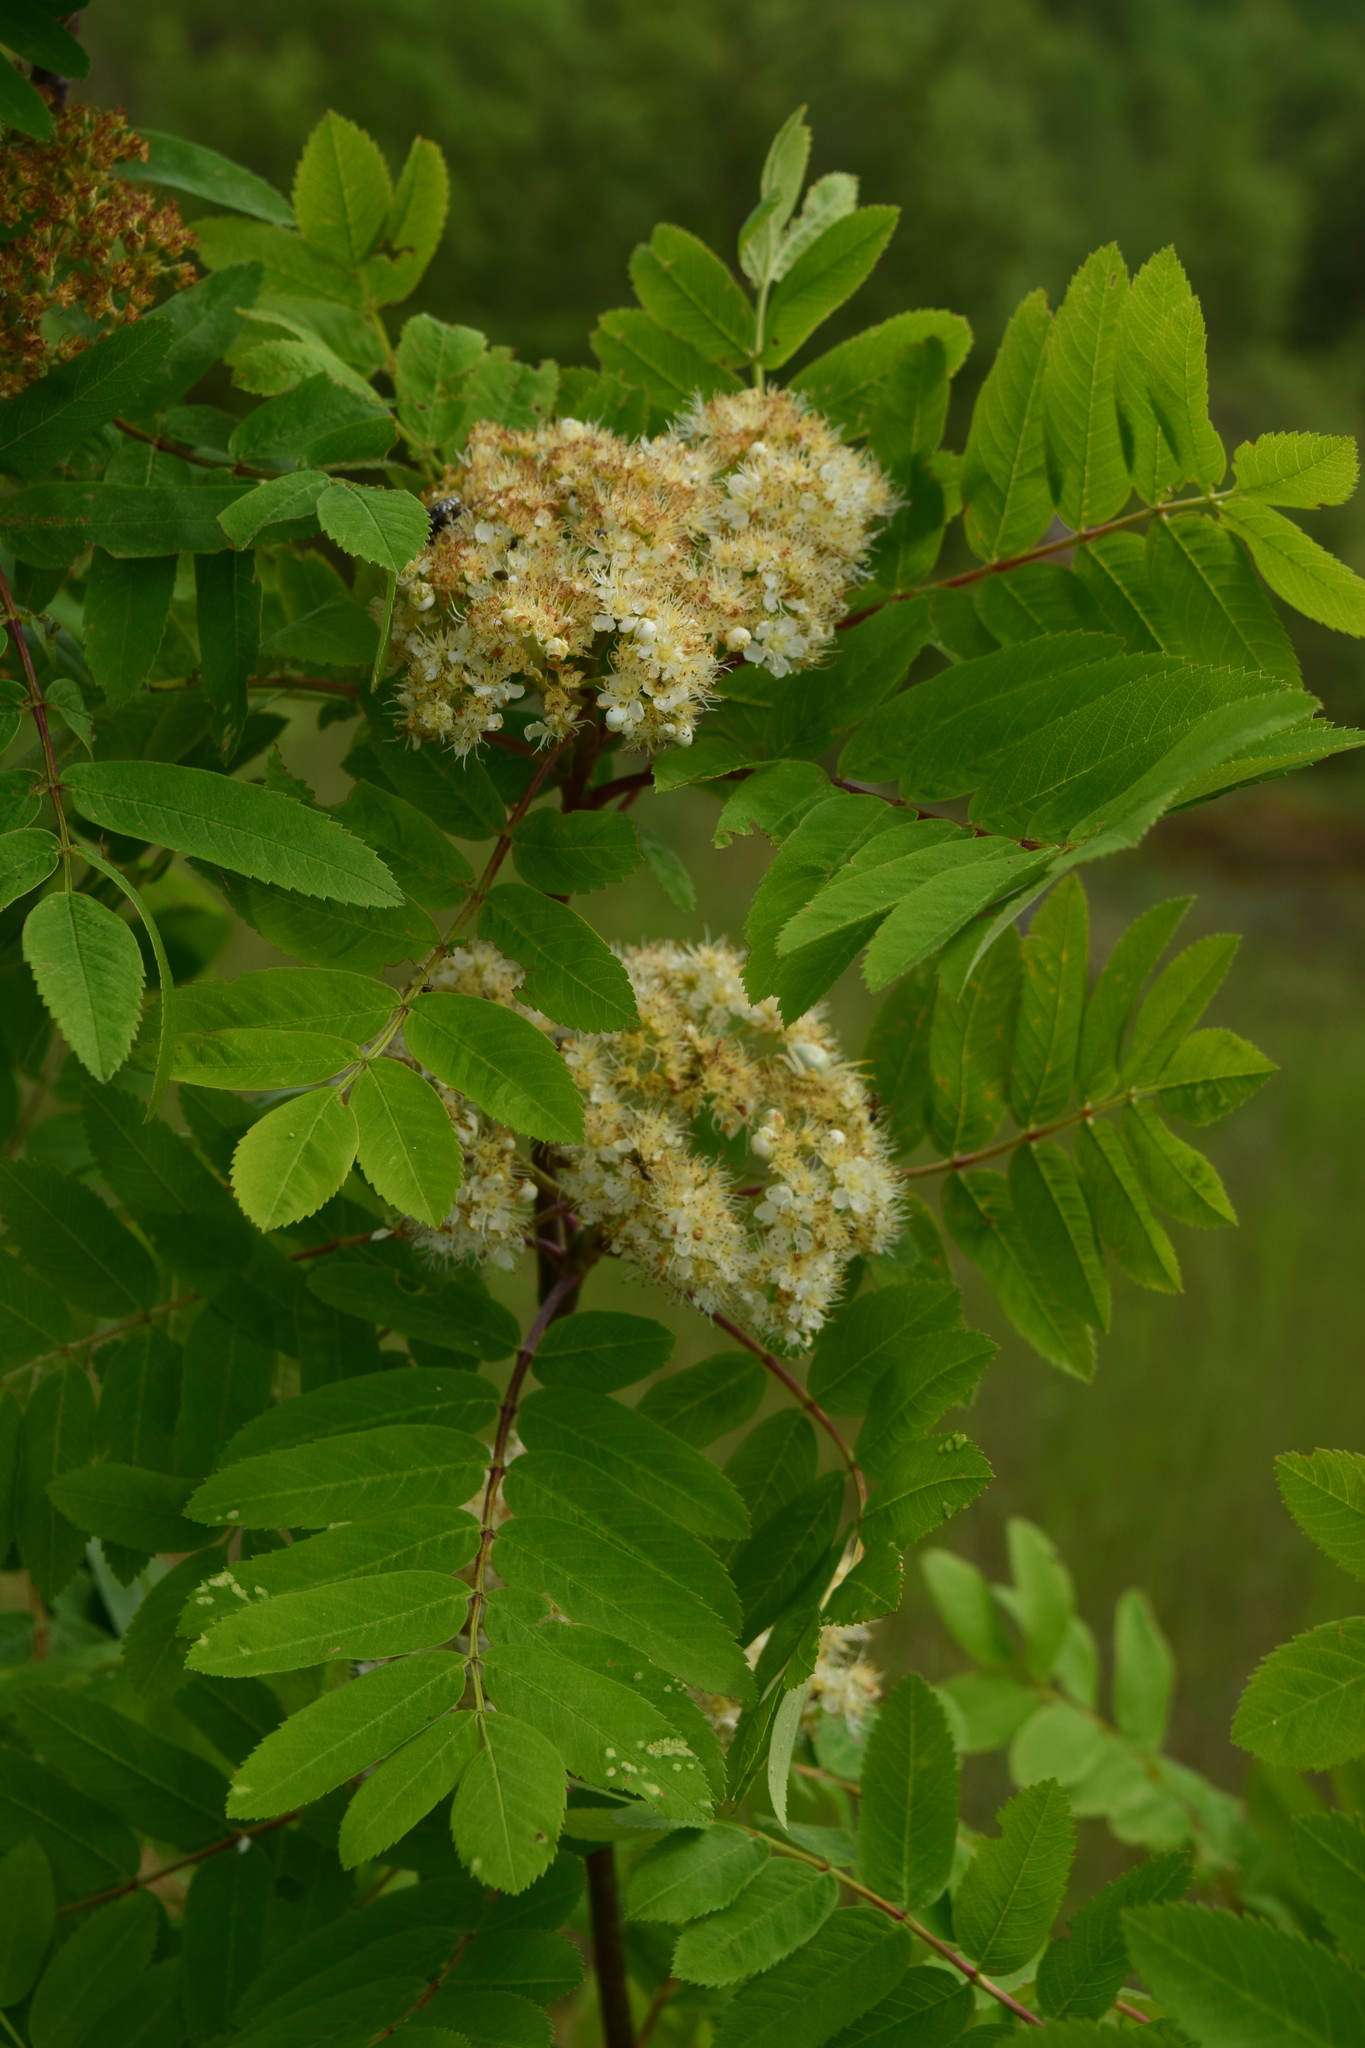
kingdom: Plantae
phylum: Tracheophyta
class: Magnoliopsida
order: Rosales
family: Rosaceae
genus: Sorbus
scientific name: Sorbus aucuparia
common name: Rowan
